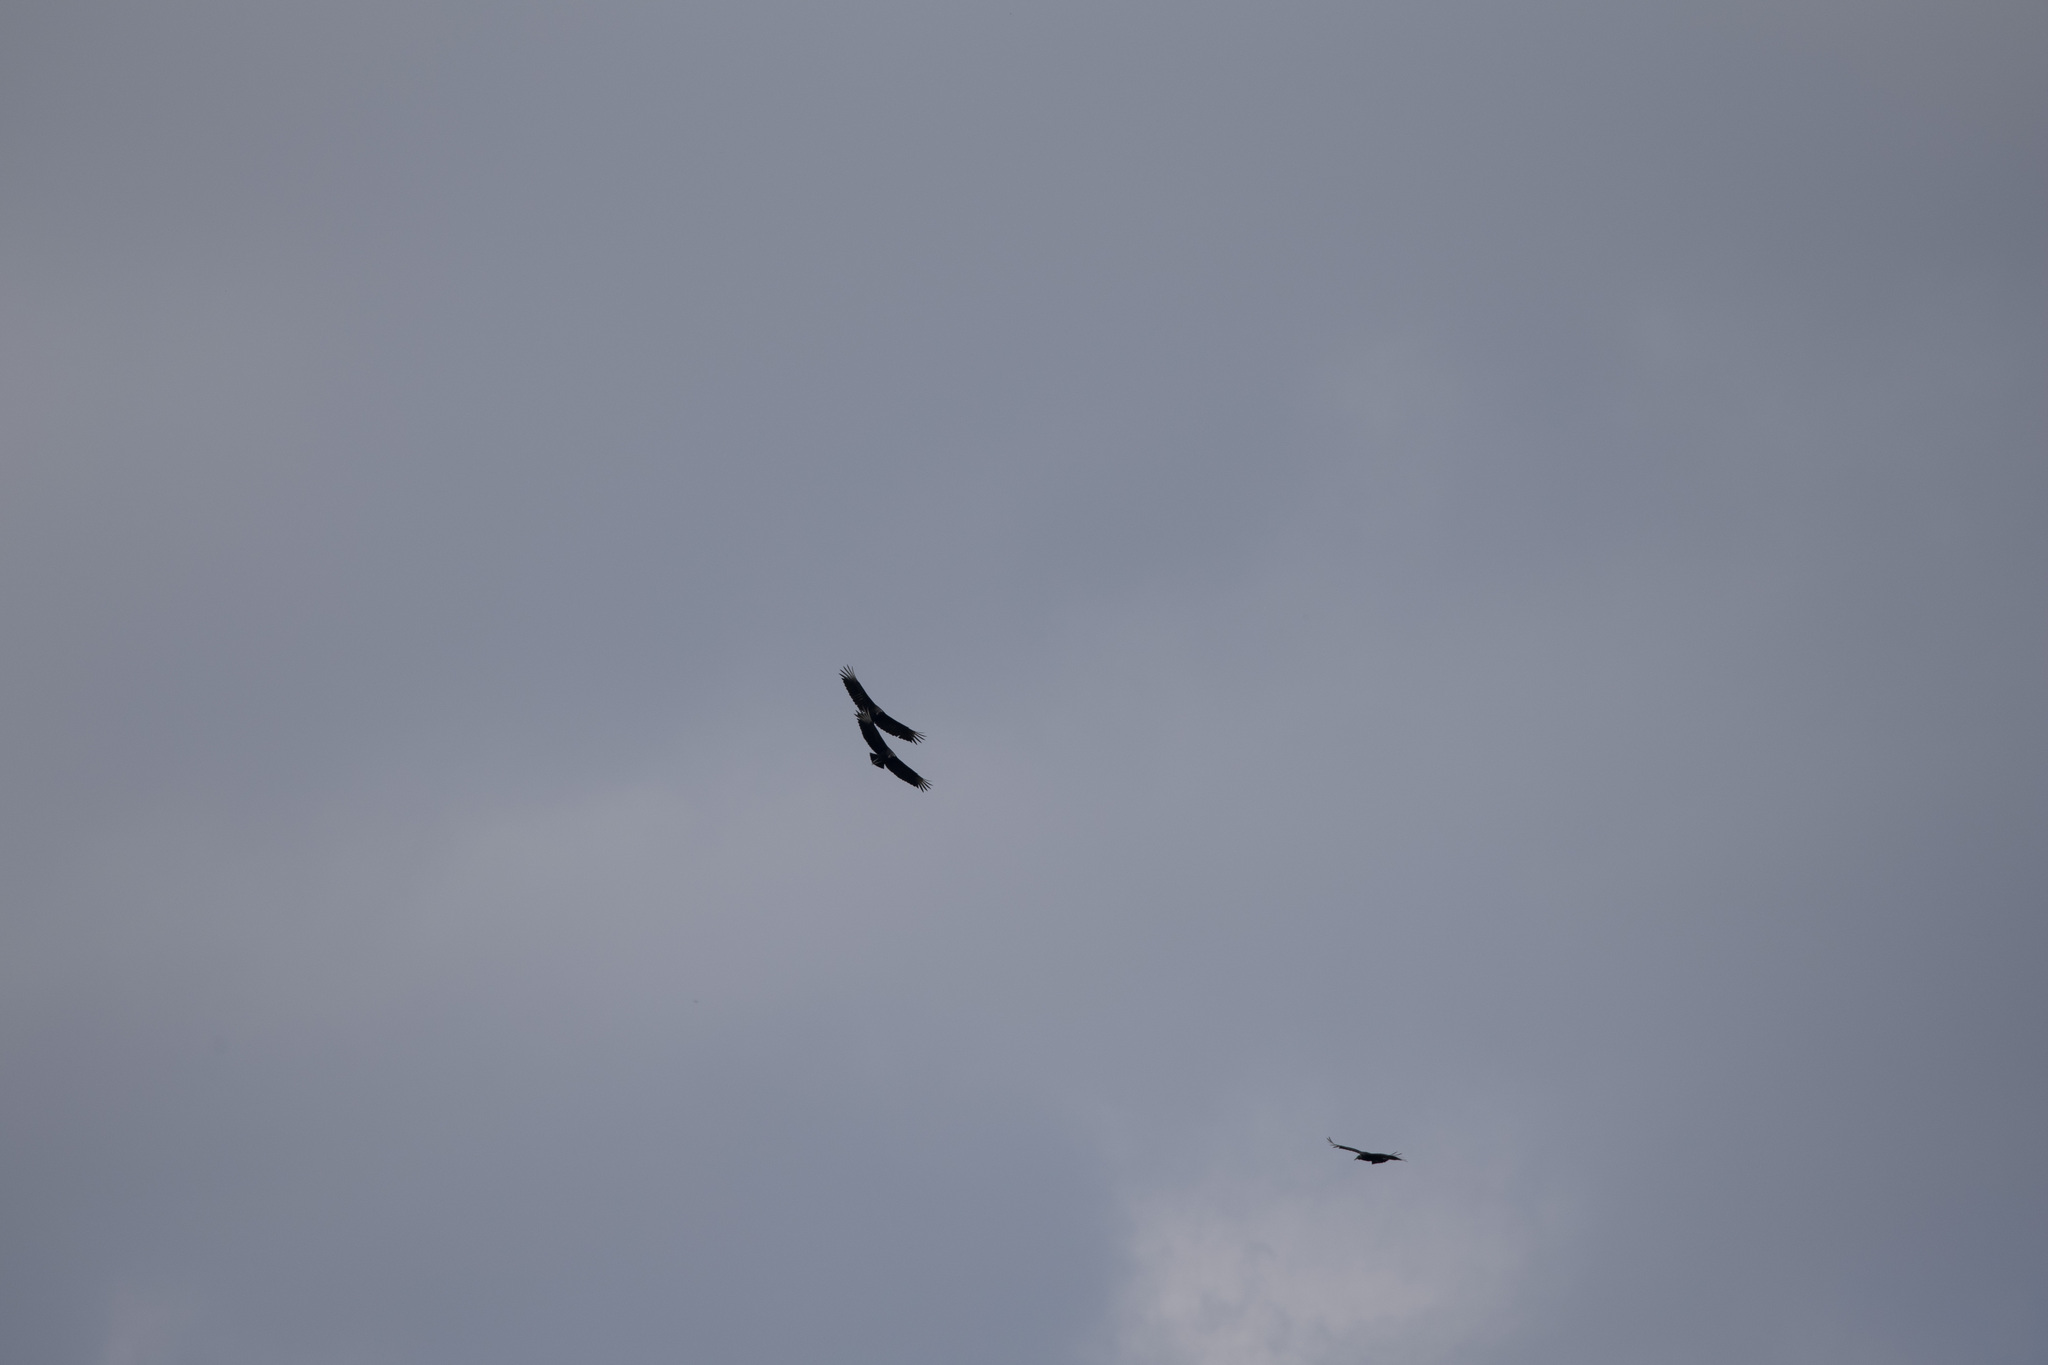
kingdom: Animalia
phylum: Chordata
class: Aves
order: Accipitriformes
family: Cathartidae
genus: Coragyps
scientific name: Coragyps atratus
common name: Black vulture
